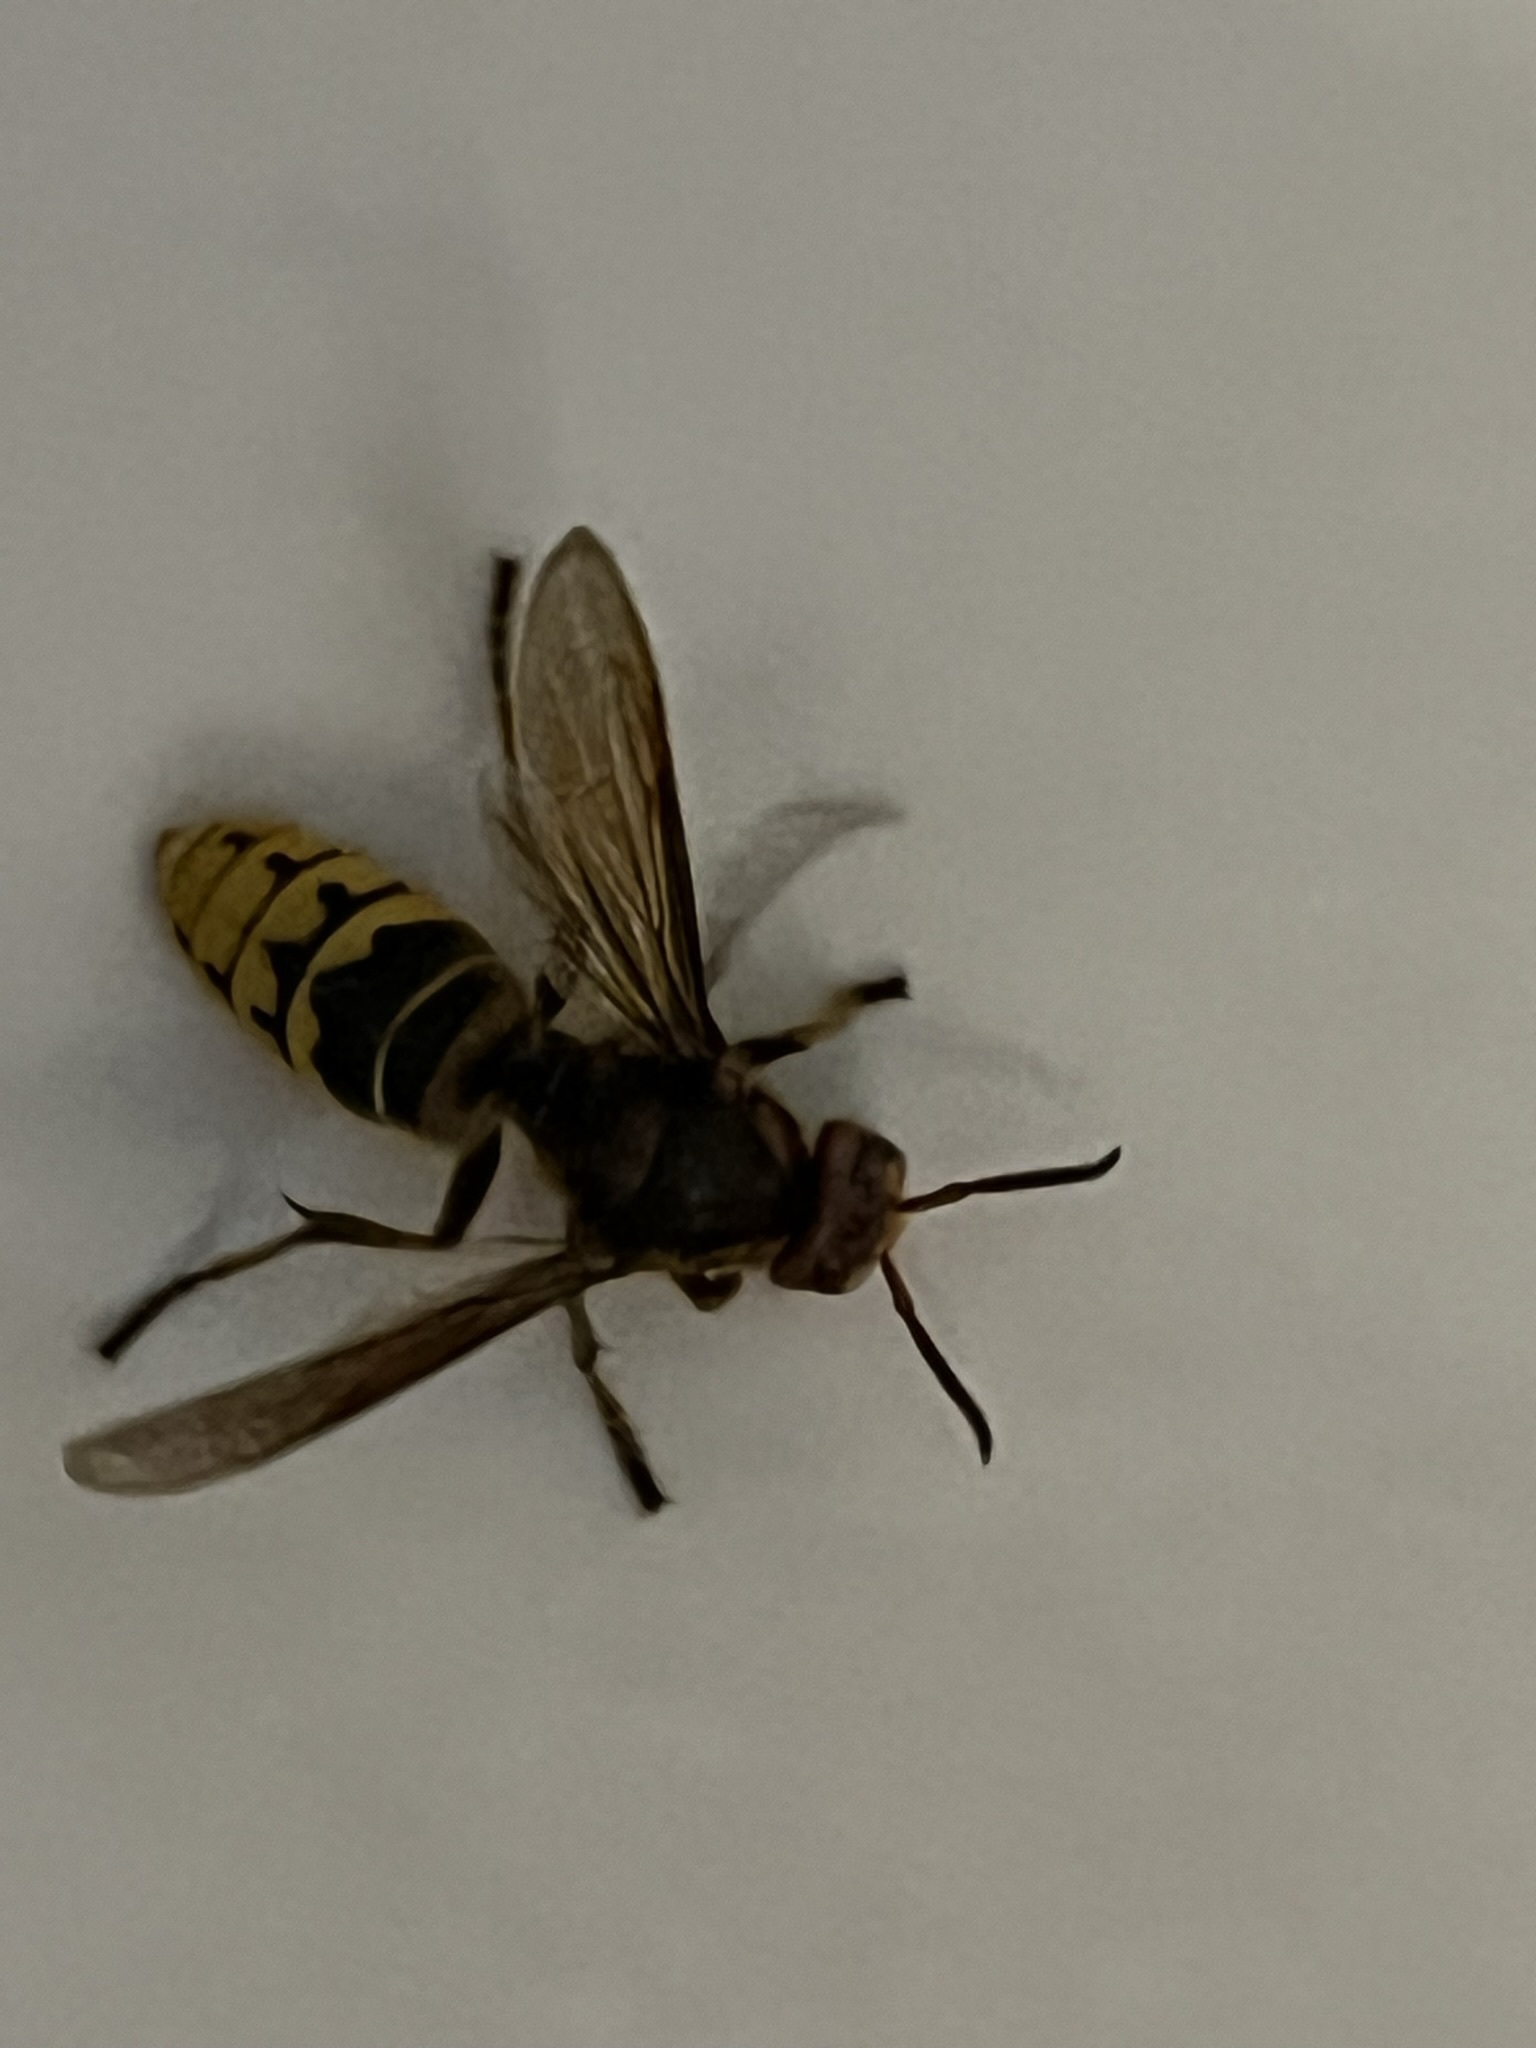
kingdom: Animalia
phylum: Arthropoda
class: Insecta
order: Hymenoptera
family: Vespidae
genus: Vespa
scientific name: Vespa crabro
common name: Hornet
